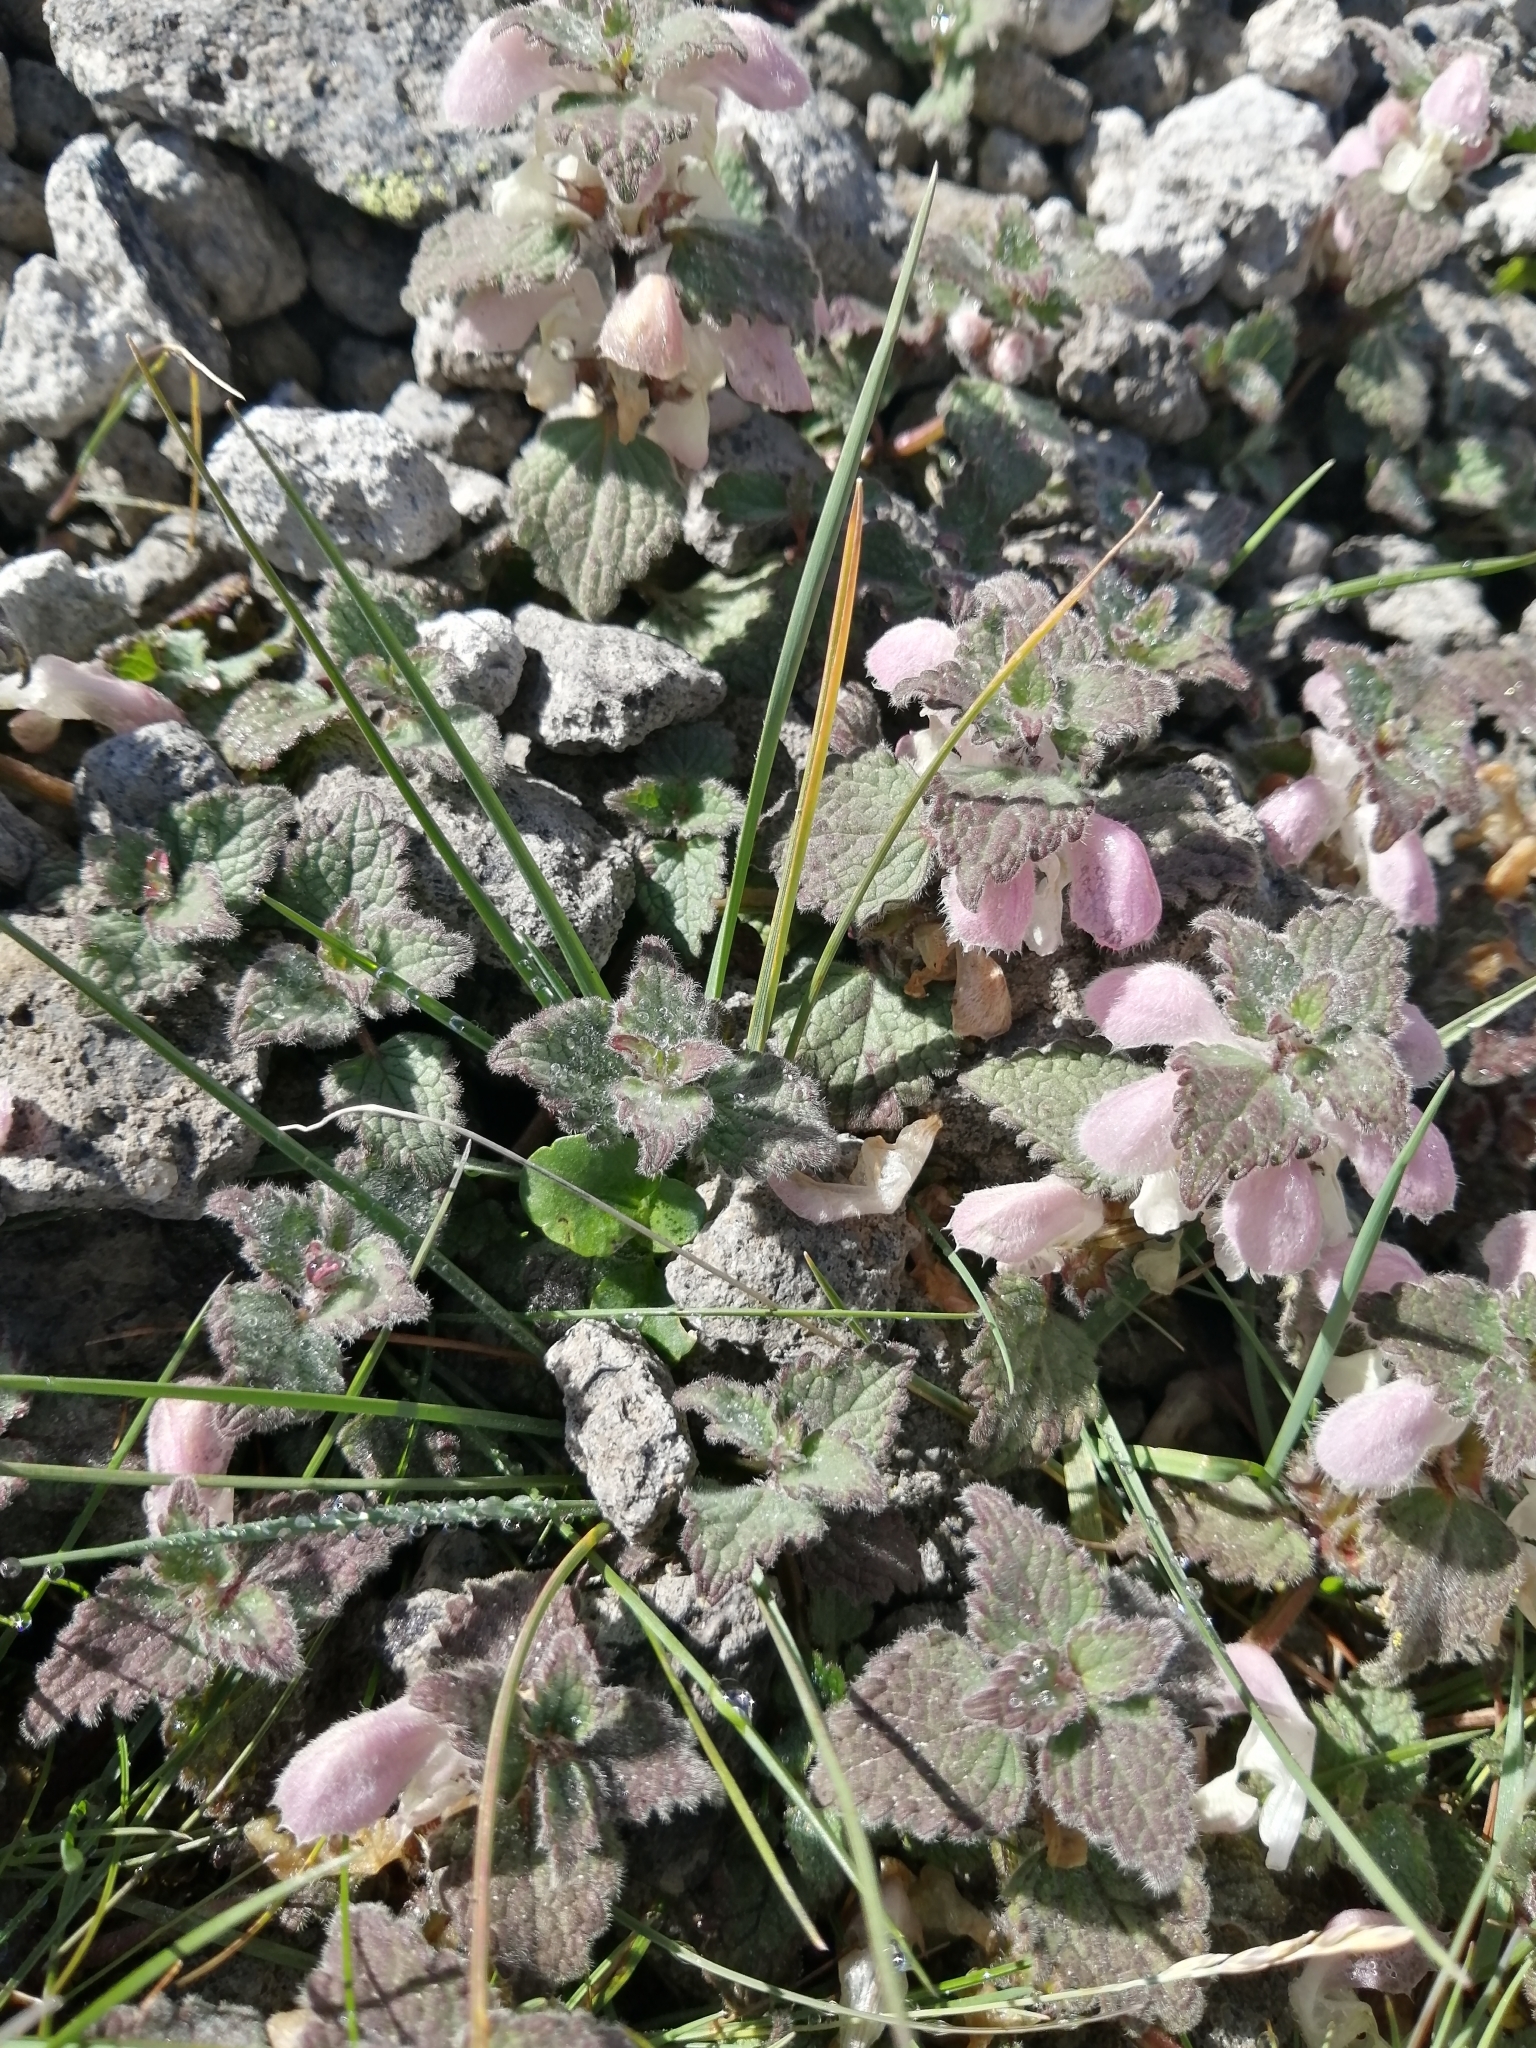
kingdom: Plantae
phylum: Tracheophyta
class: Magnoliopsida
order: Lamiales
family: Lamiaceae
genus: Lamium
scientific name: Lamium tomentosum
